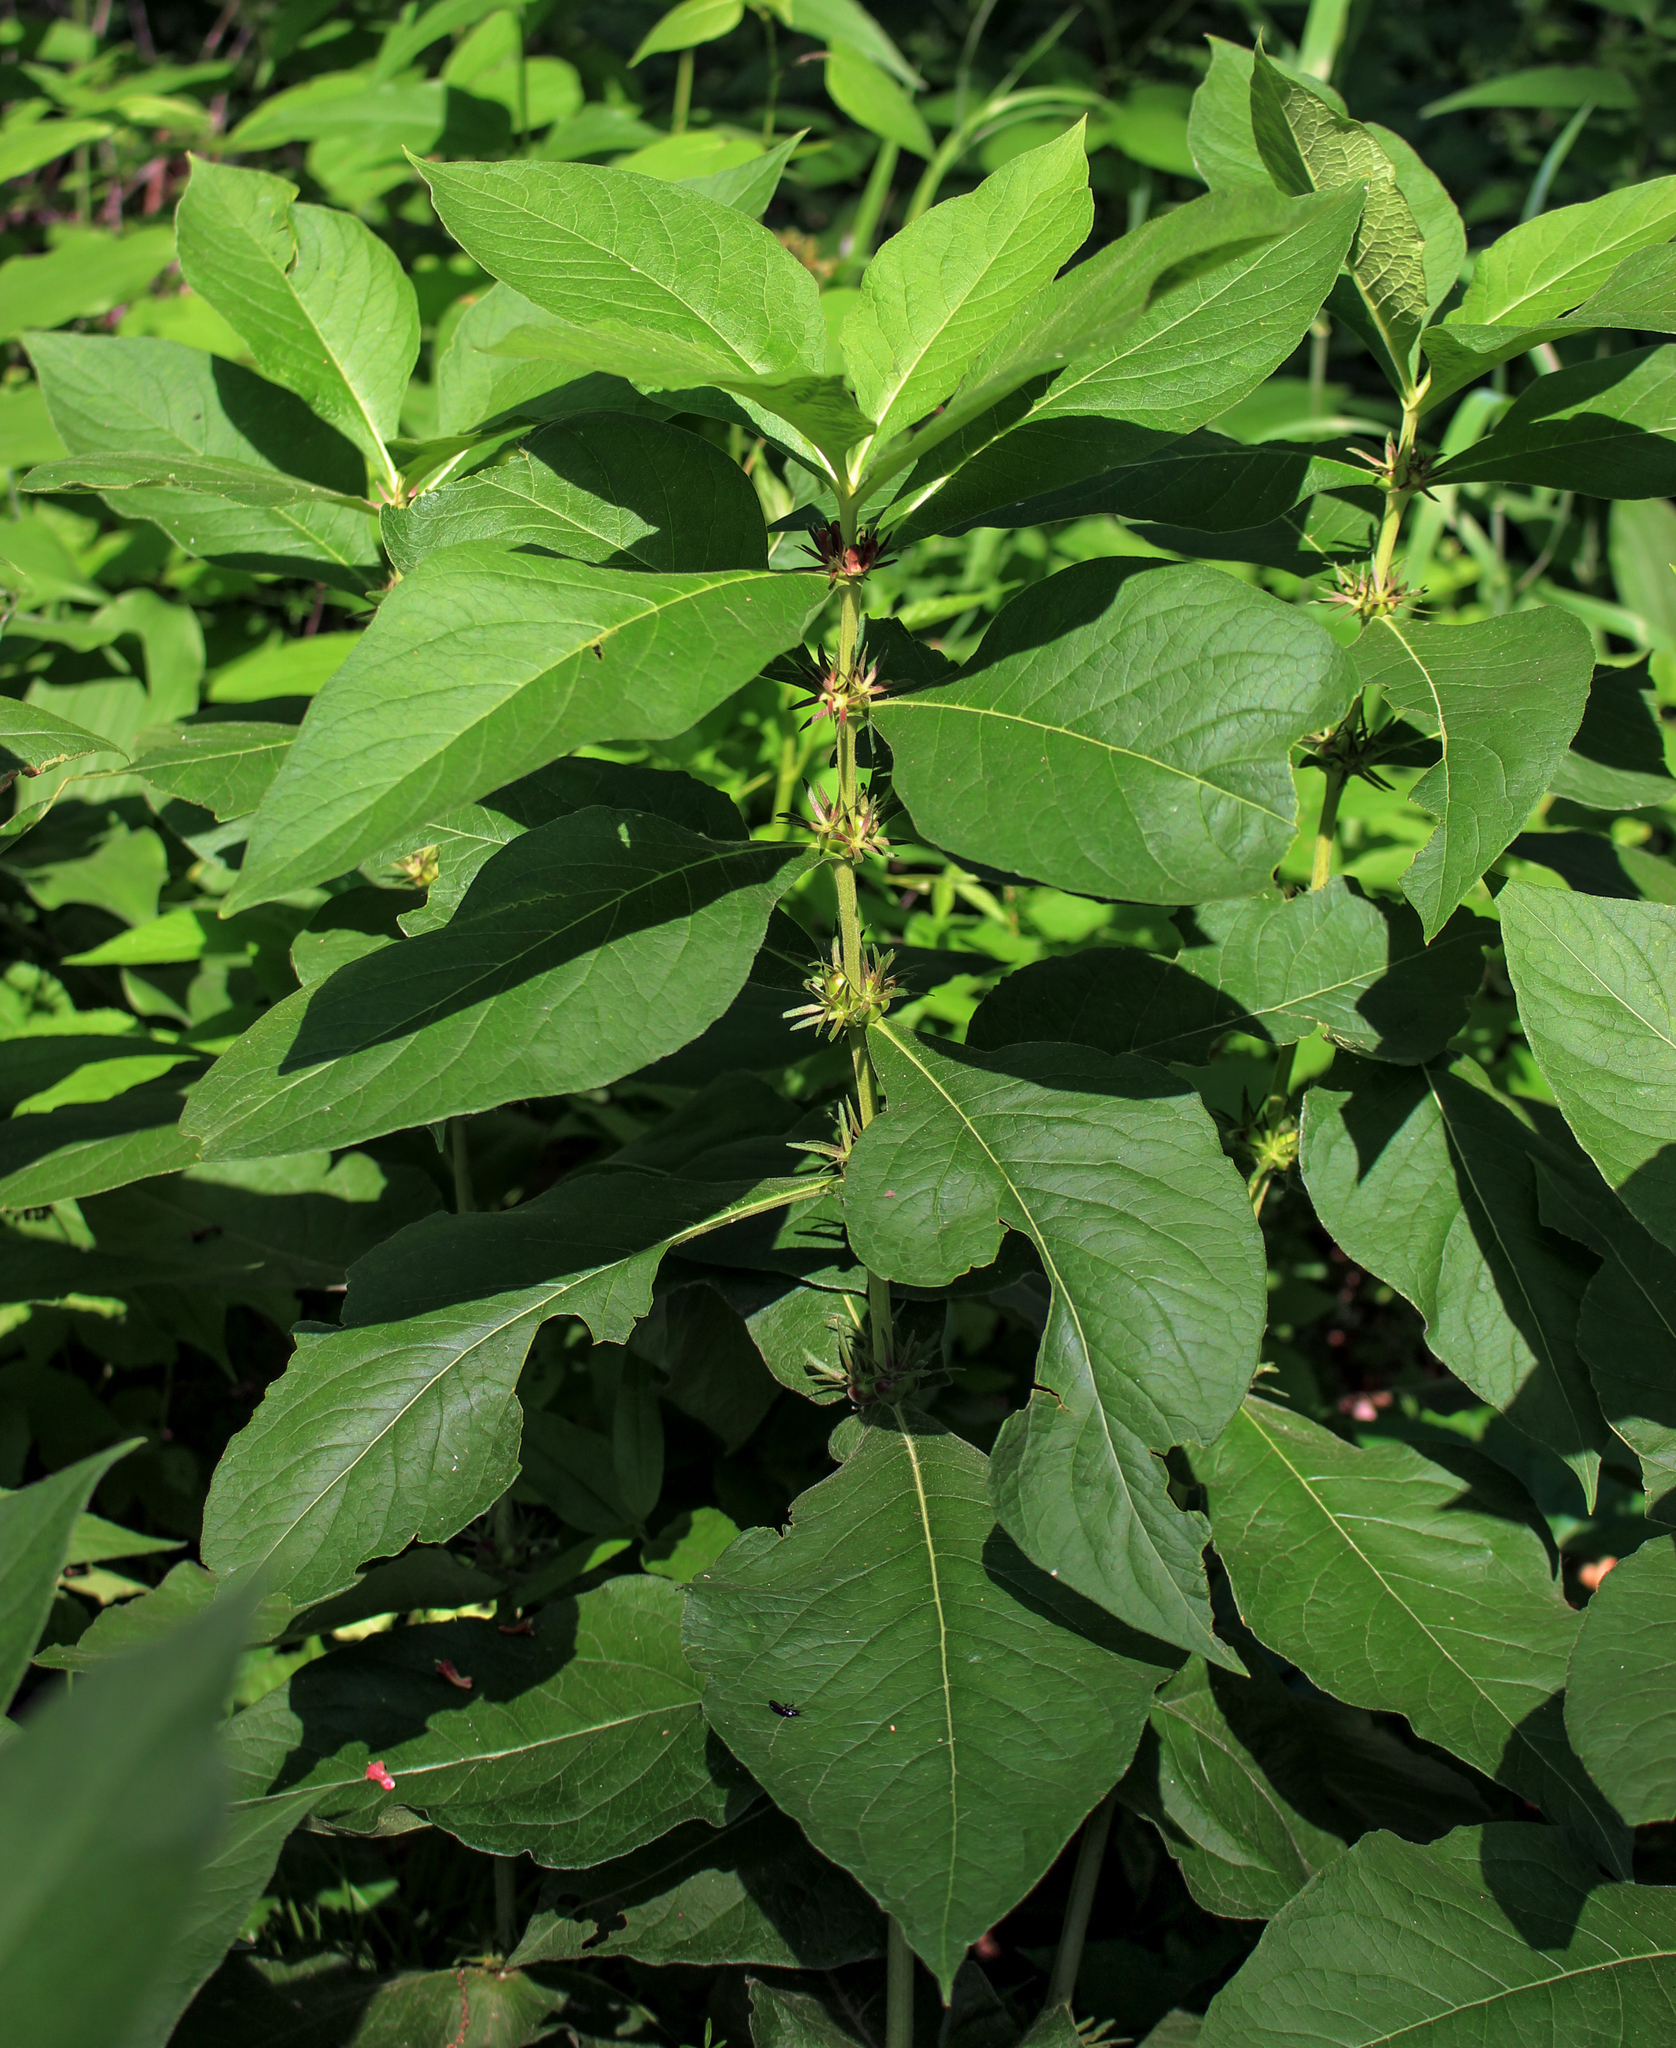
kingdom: Plantae
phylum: Tracheophyta
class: Magnoliopsida
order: Dipsacales
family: Caprifoliaceae
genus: Triosteum
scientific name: Triosteum aurantiacum
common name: Coffee tinker's-weed
